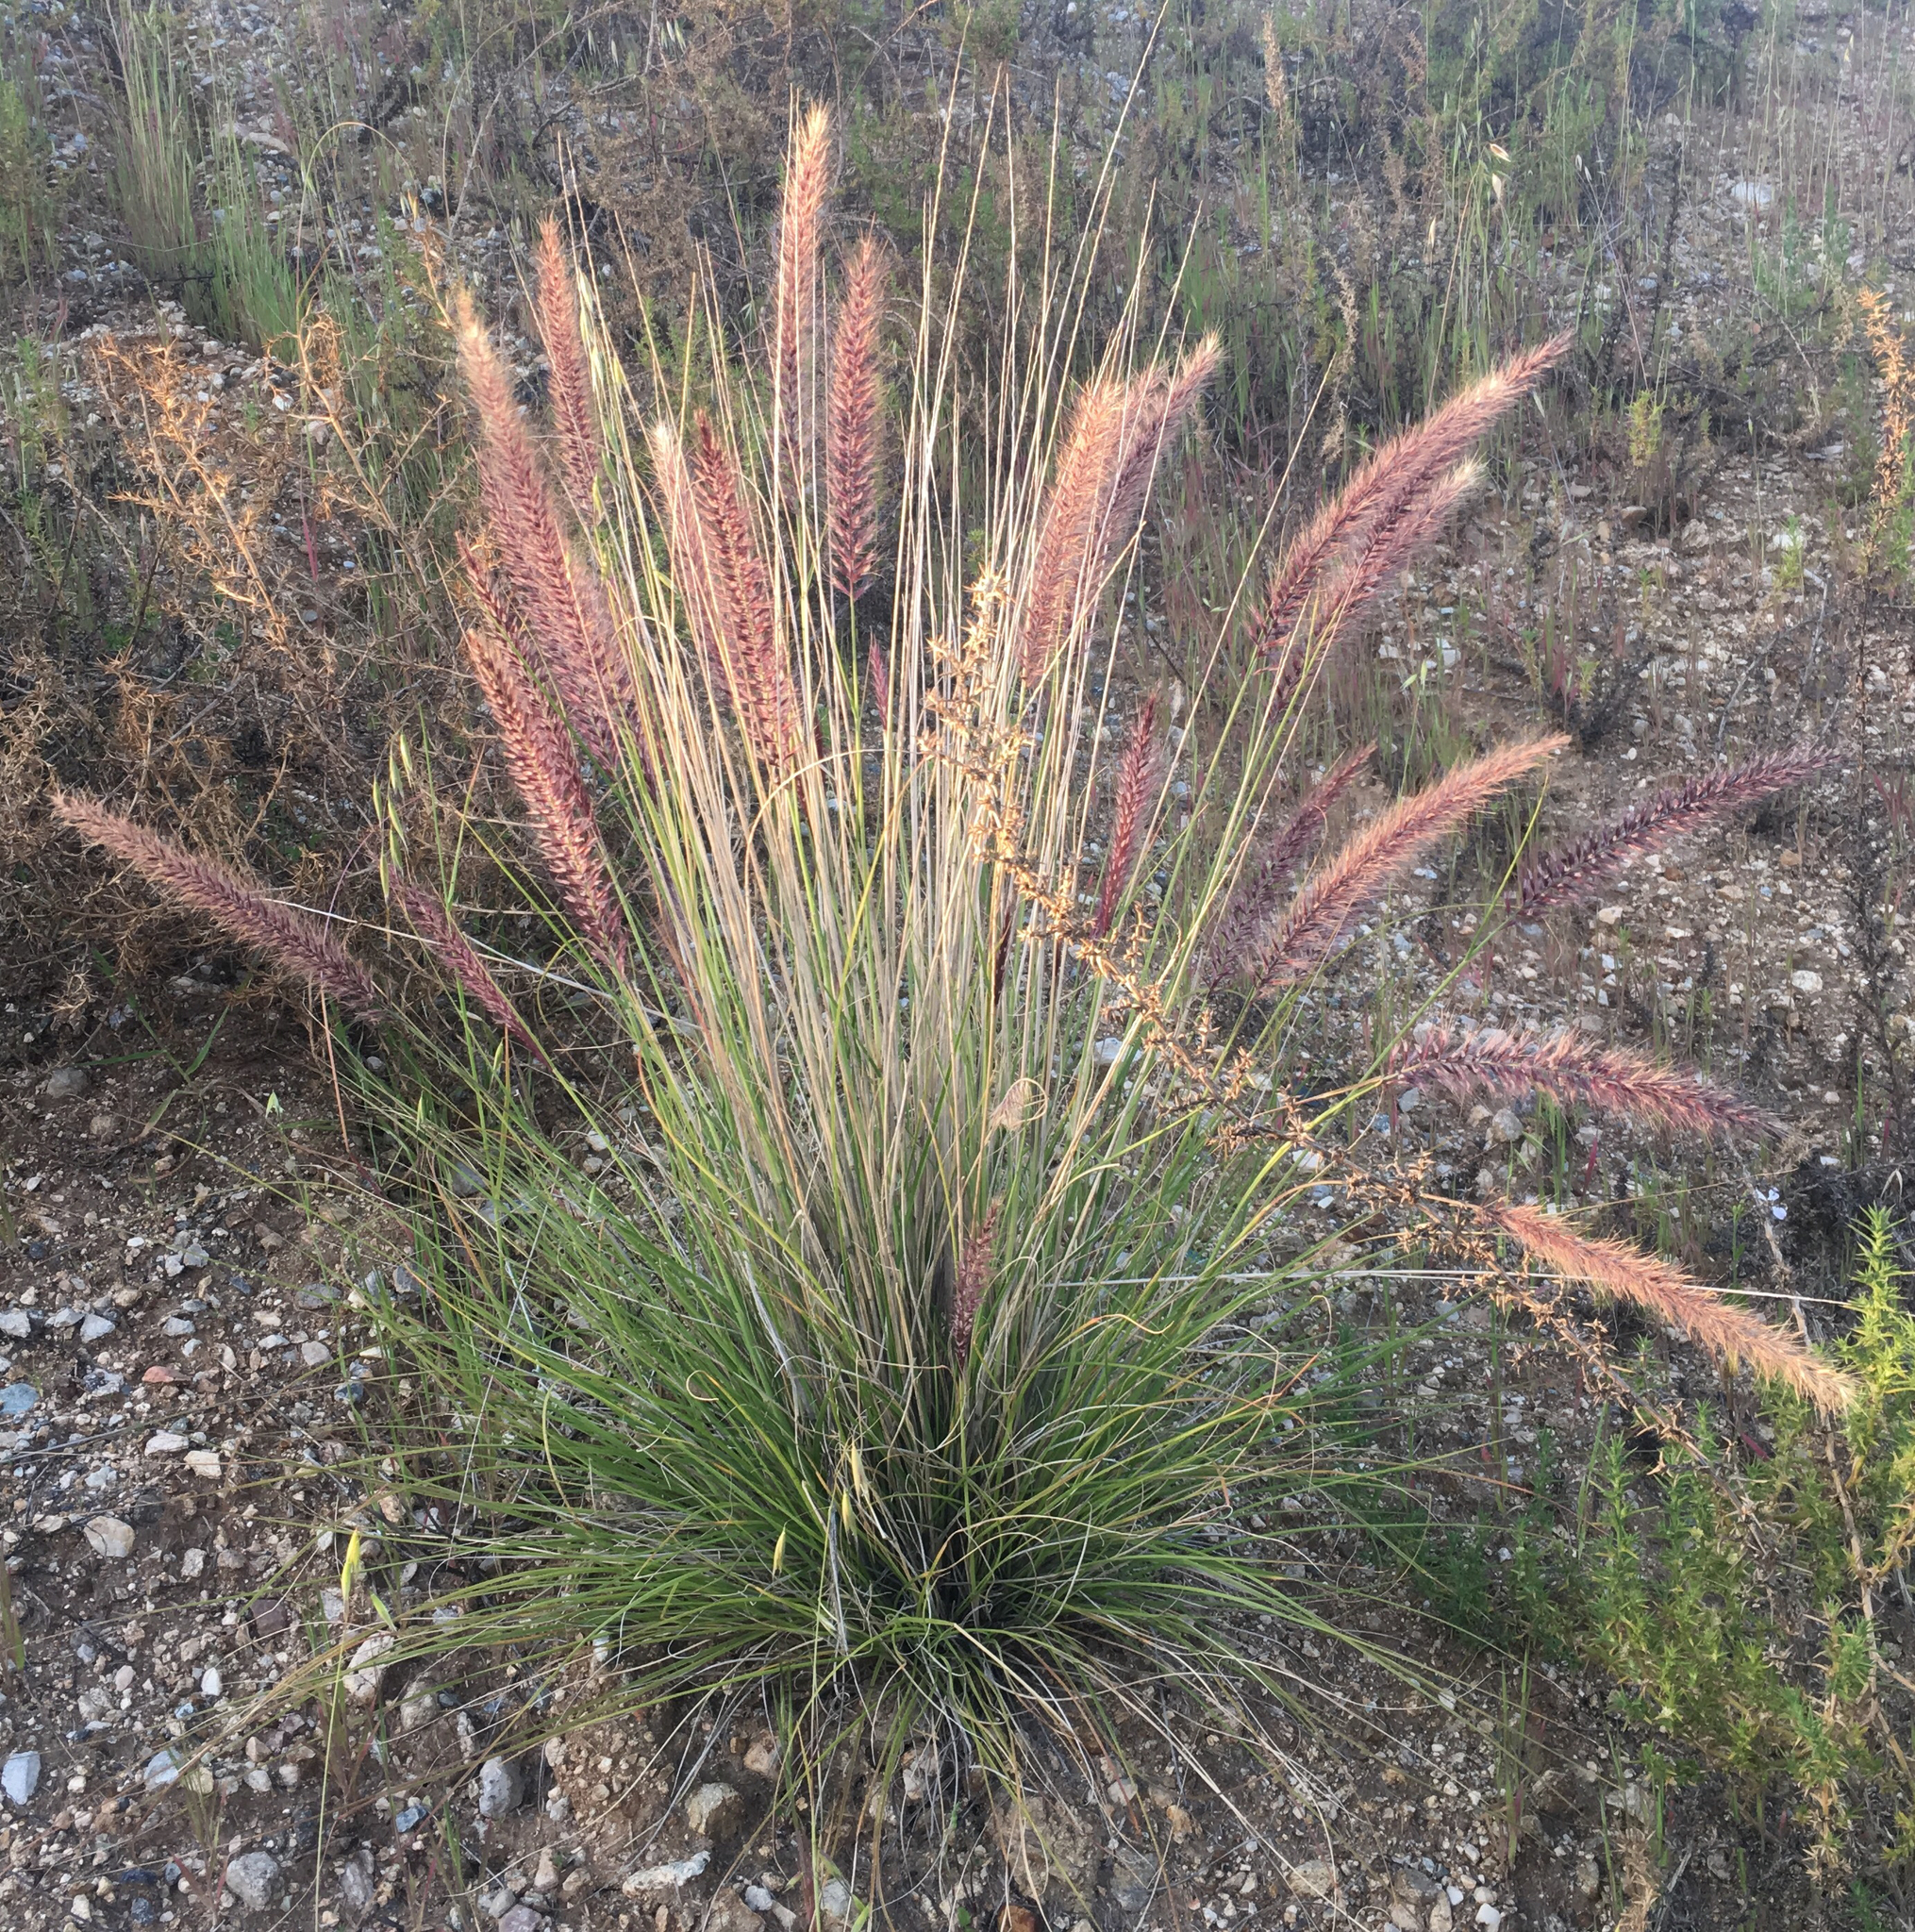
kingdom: Plantae
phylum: Tracheophyta
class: Liliopsida
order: Poales
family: Poaceae
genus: Cenchrus
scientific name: Cenchrus setaceus
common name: Crimson fountaingrass
